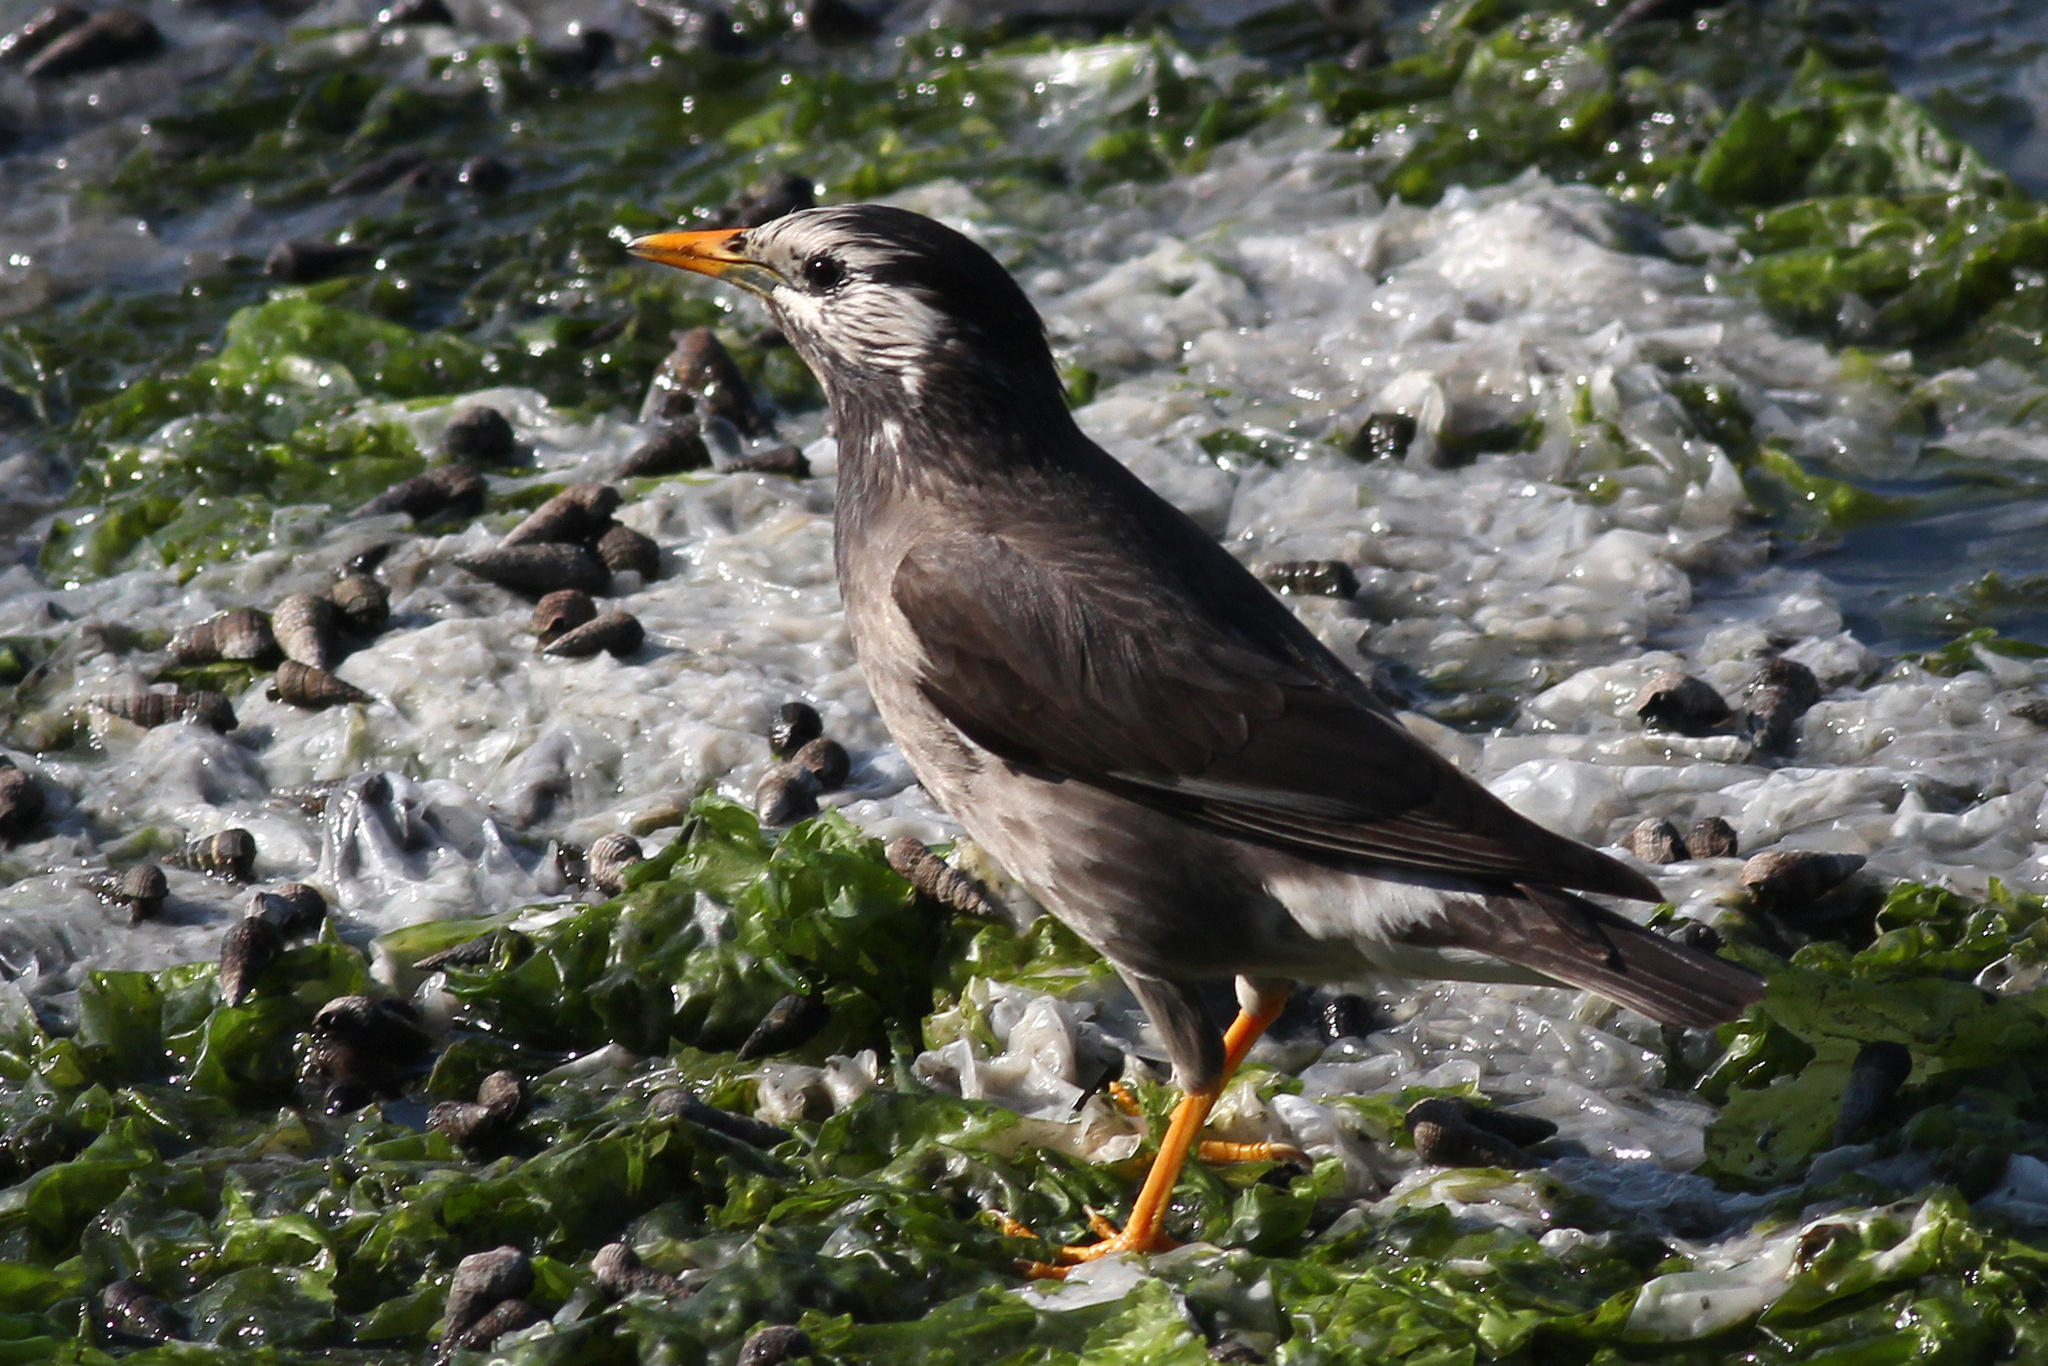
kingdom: Animalia
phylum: Chordata
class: Aves
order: Passeriformes
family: Sturnidae
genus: Spodiopsar
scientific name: Spodiopsar cineraceus
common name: White-cheeked starling
